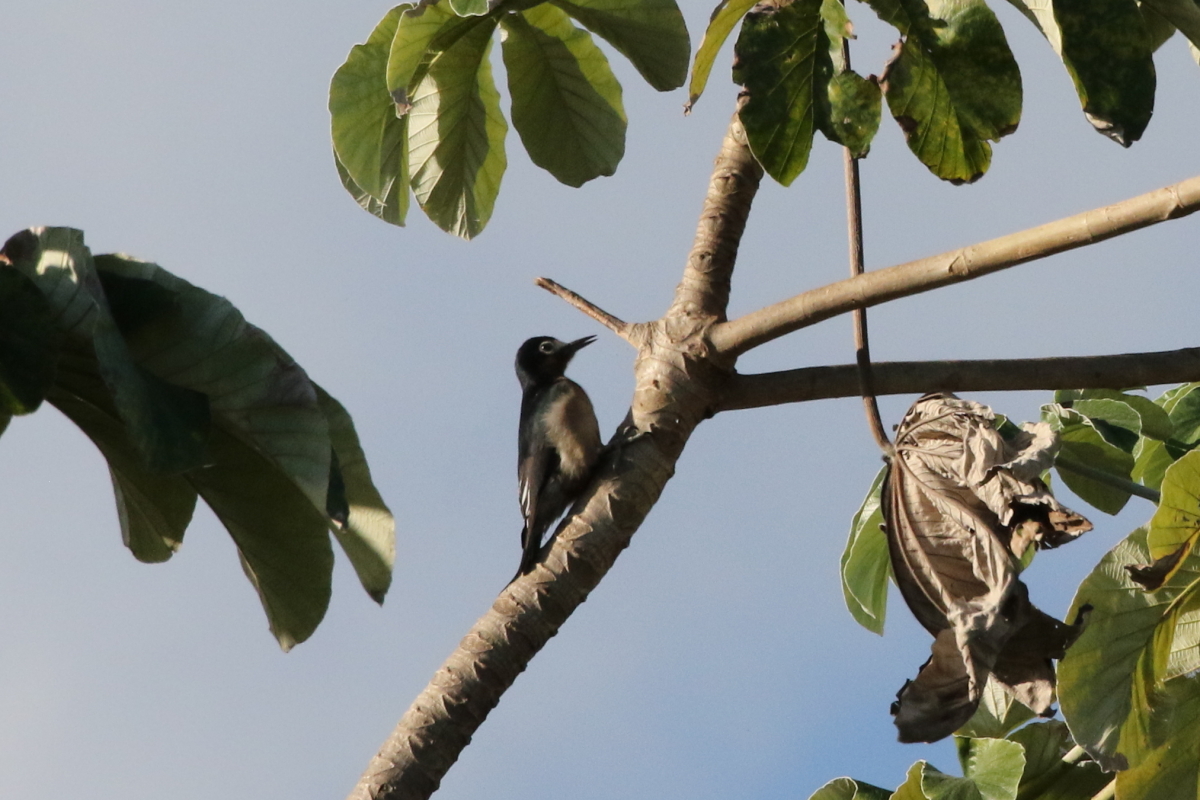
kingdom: Animalia
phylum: Chordata
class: Aves
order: Piciformes
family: Picidae
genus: Melanerpes
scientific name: Melanerpes portoricensis
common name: Puerto rican woodpecker
